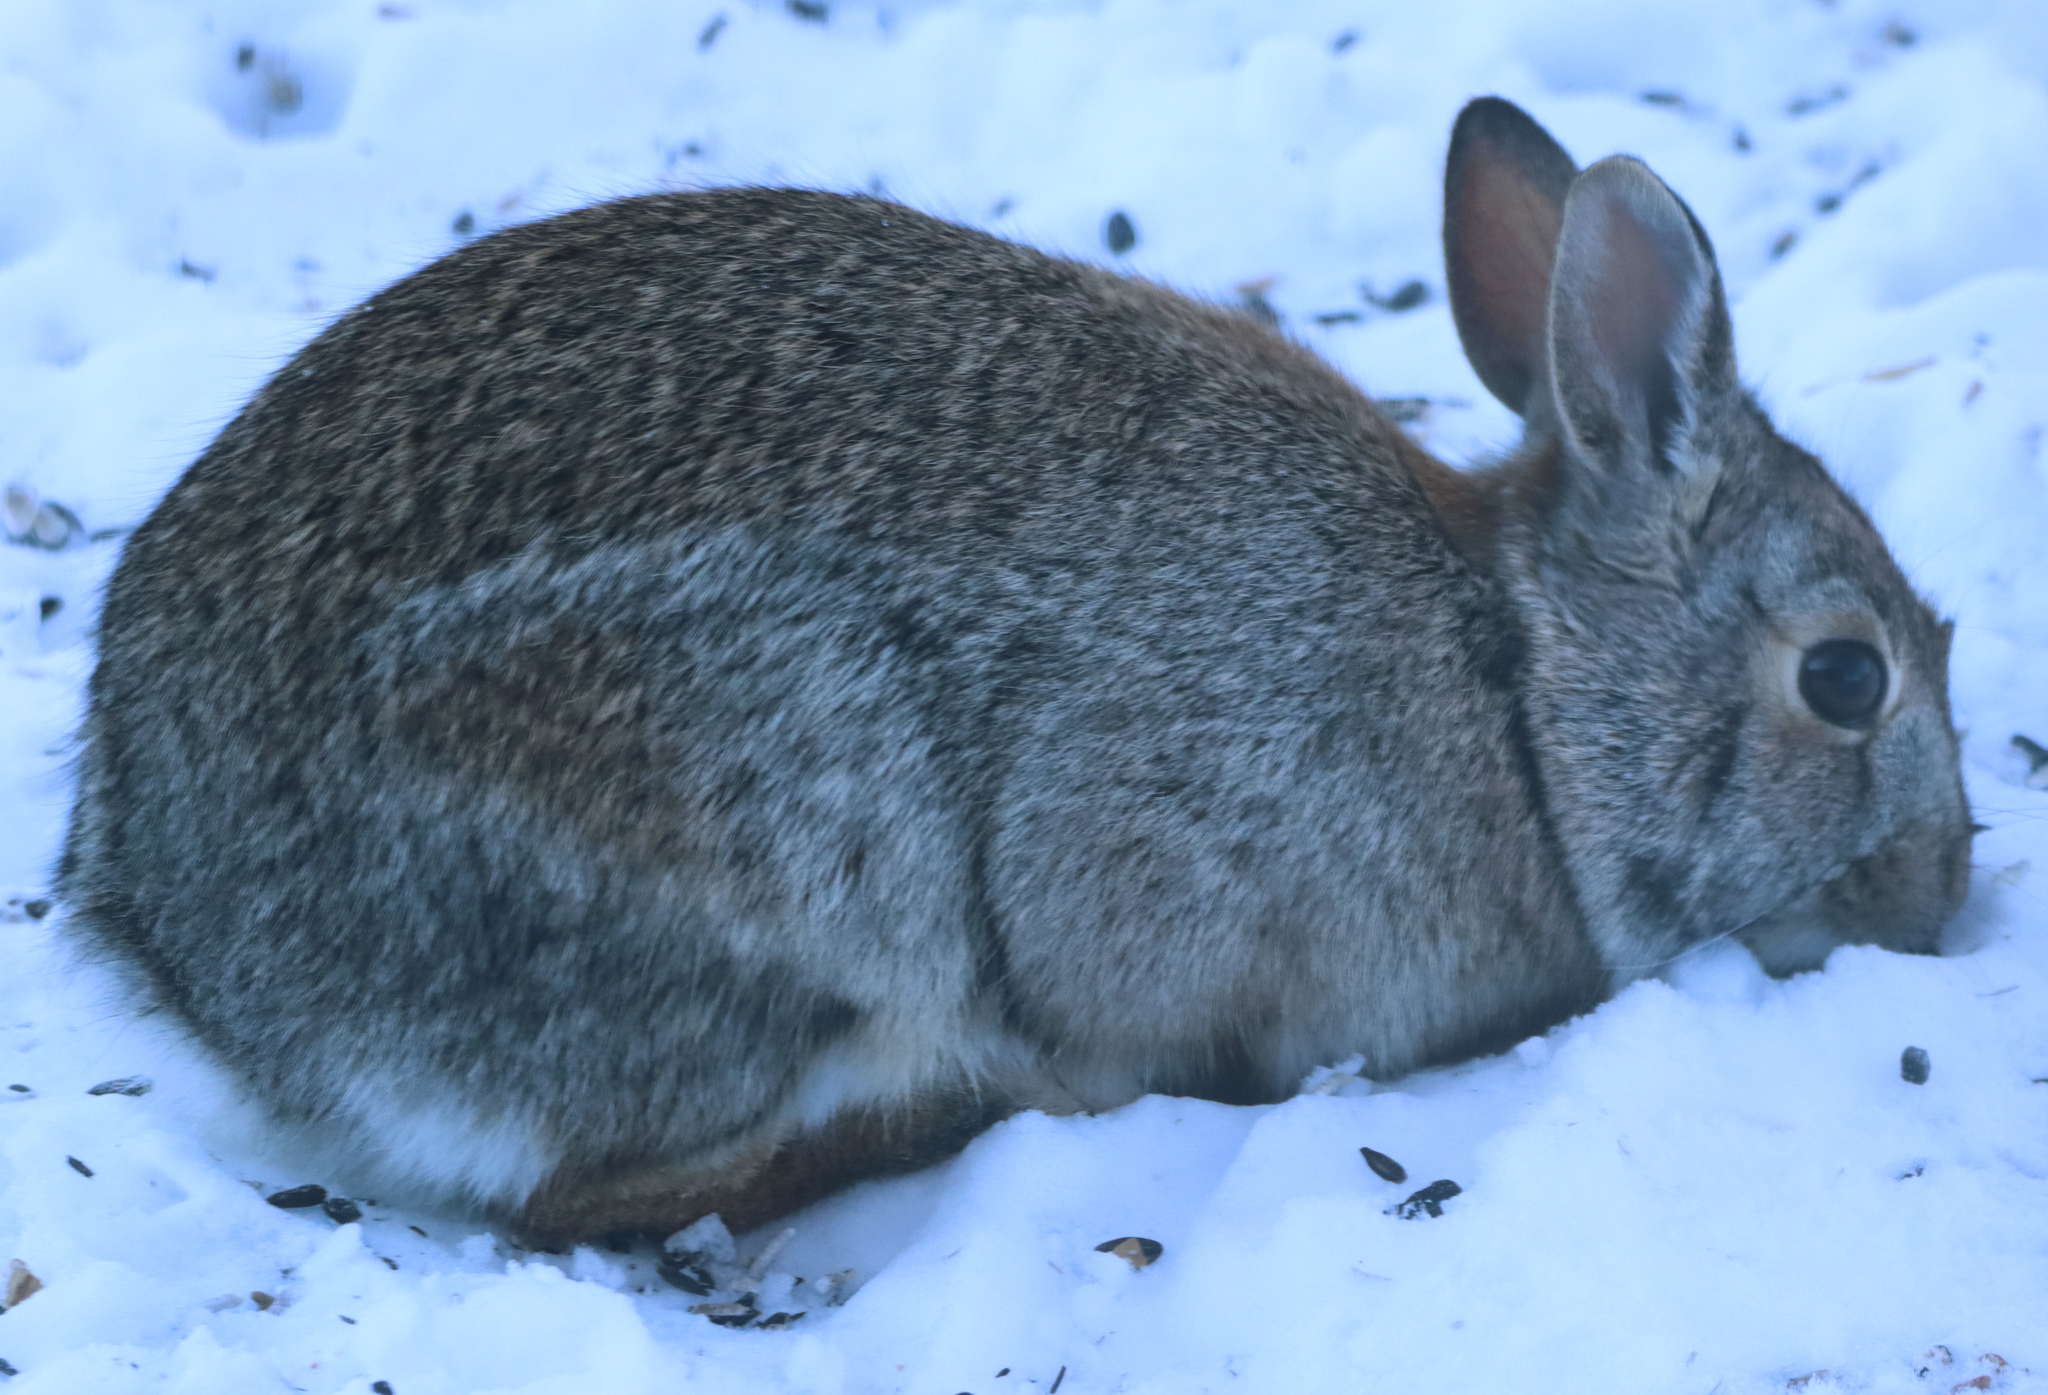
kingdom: Animalia
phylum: Chordata
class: Mammalia
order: Lagomorpha
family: Leporidae
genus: Sylvilagus
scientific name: Sylvilagus floridanus
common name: Eastern cottontail
